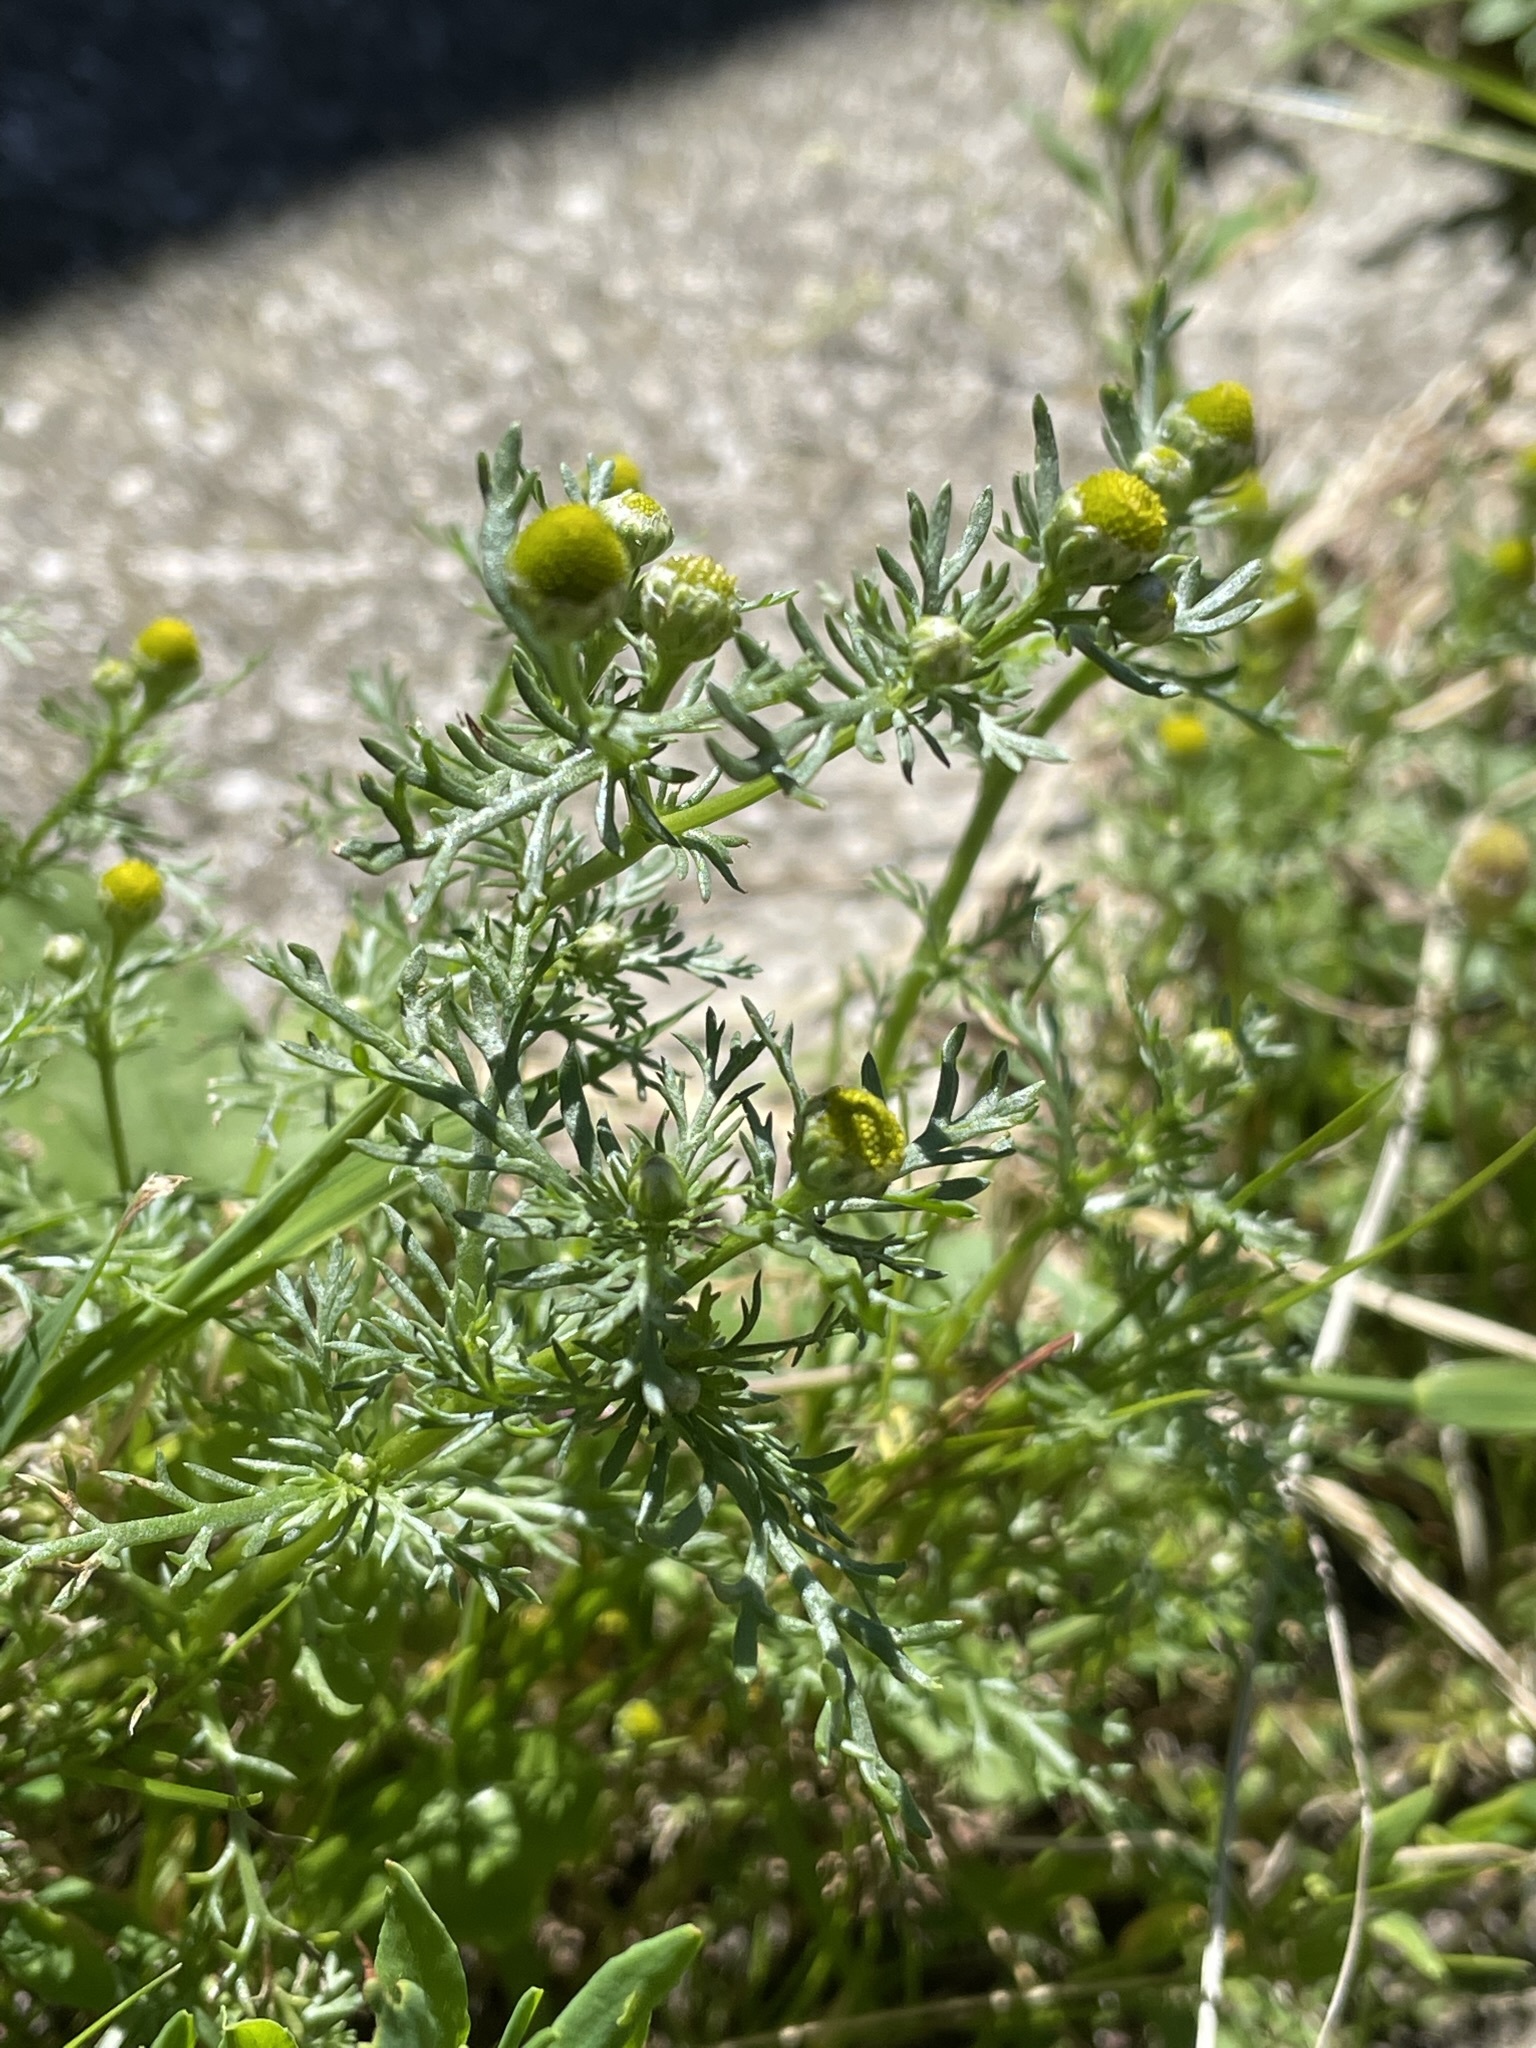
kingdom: Plantae
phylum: Tracheophyta
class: Magnoliopsida
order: Asterales
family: Asteraceae
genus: Matricaria
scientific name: Matricaria discoidea
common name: Disc mayweed
